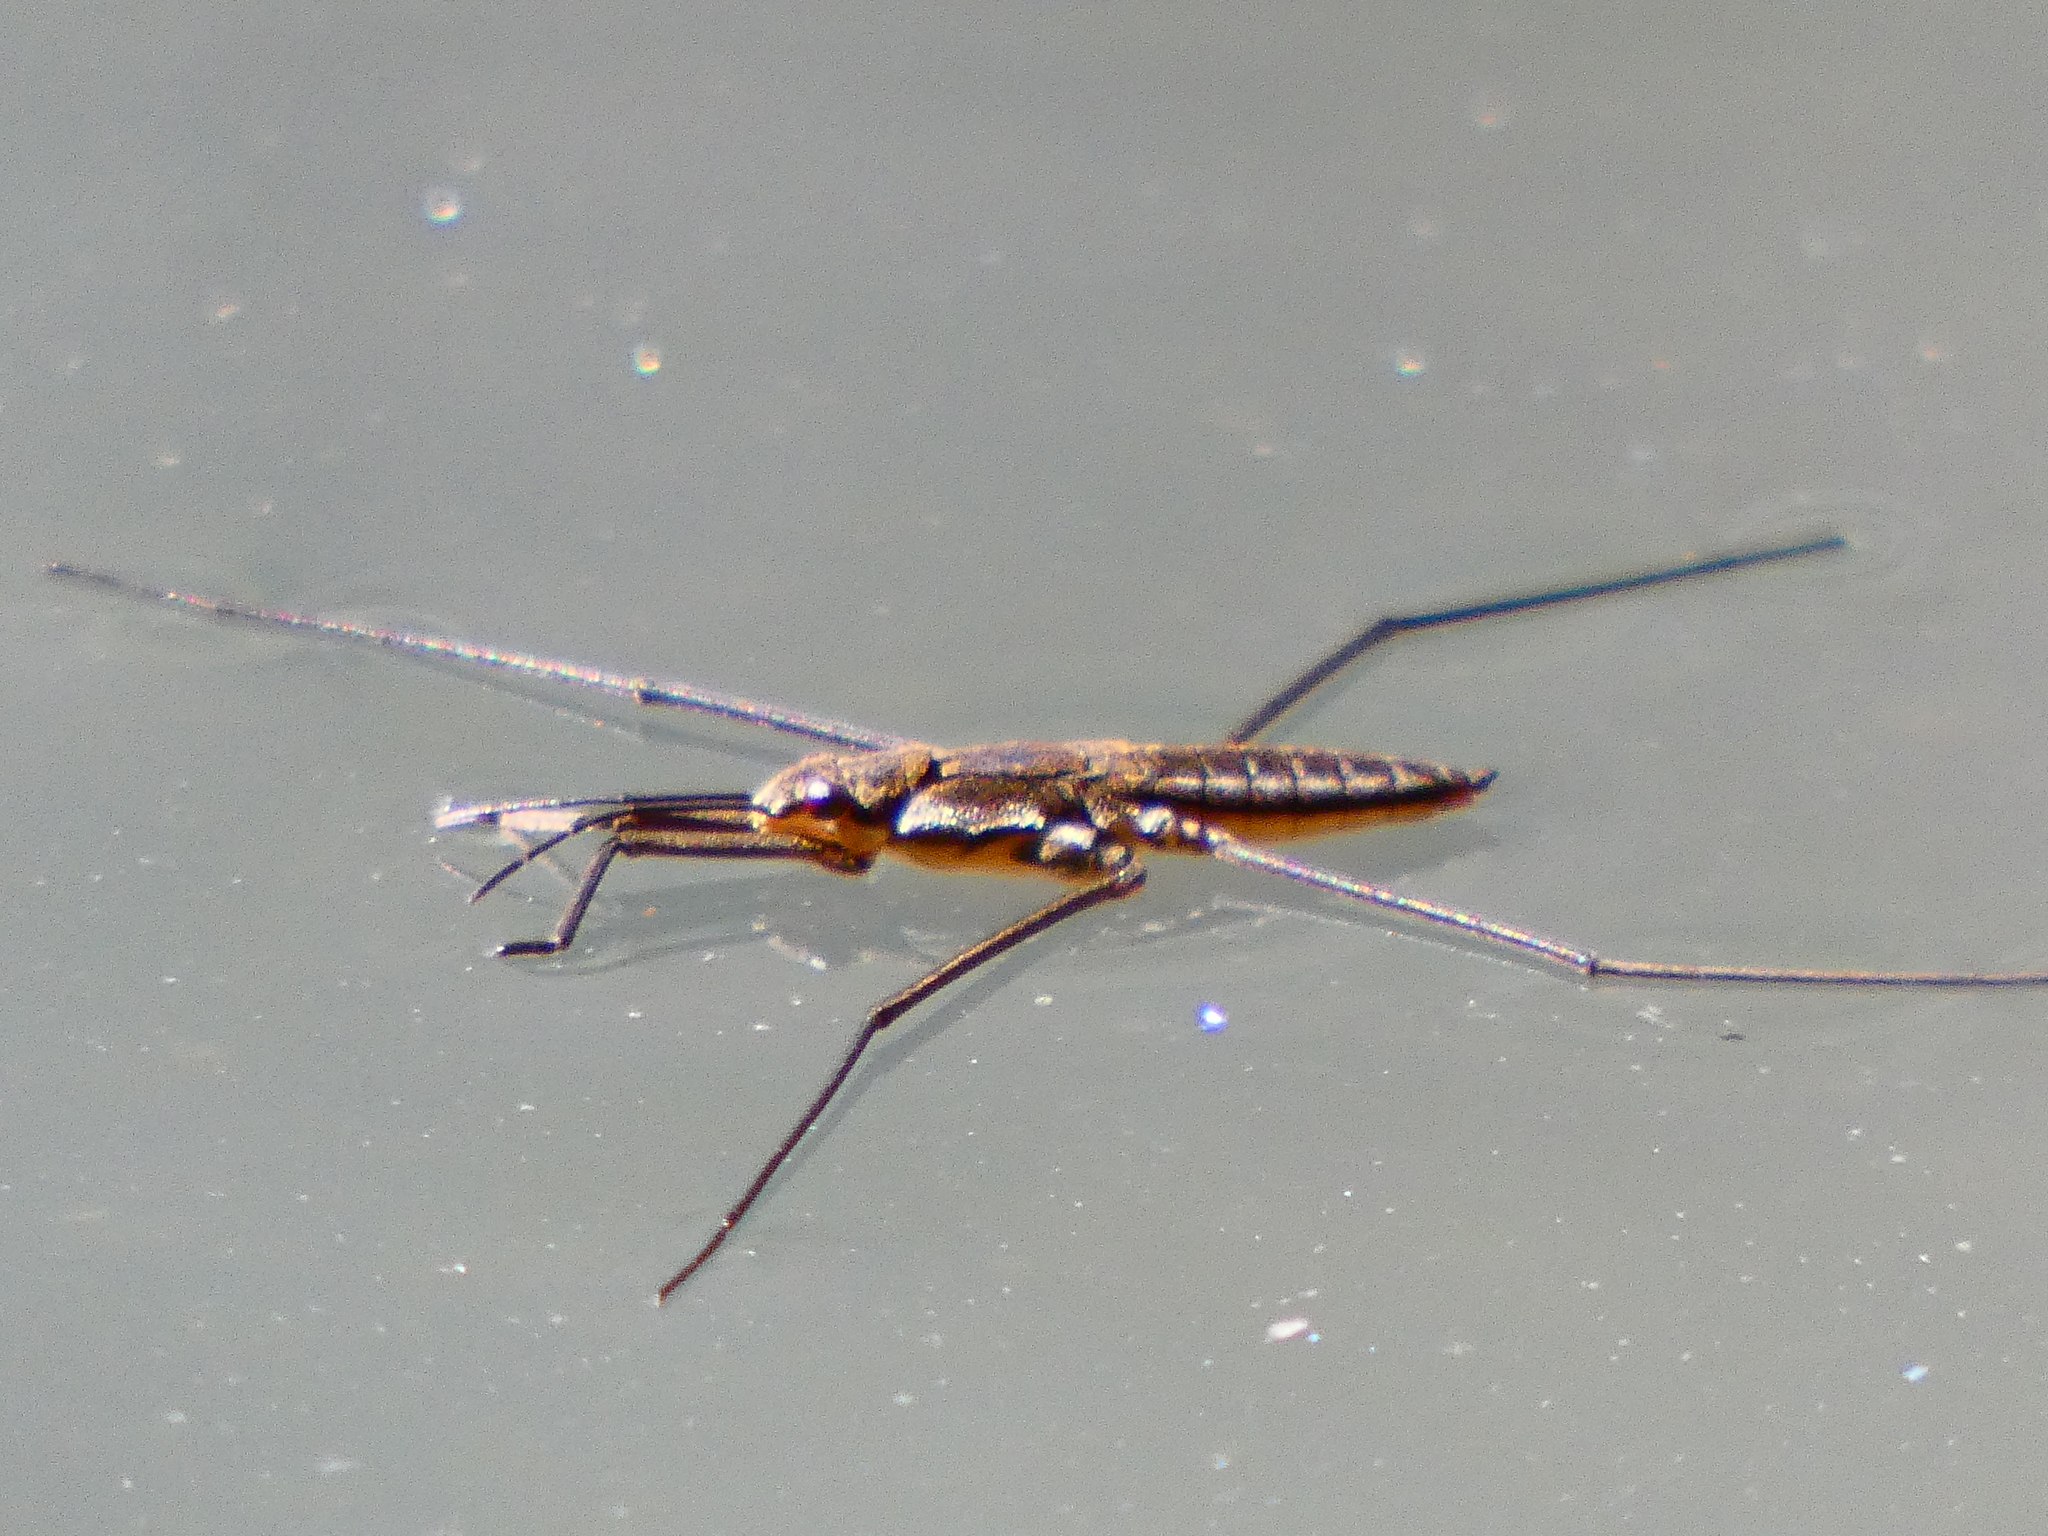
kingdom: Animalia
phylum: Arthropoda
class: Insecta
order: Hemiptera
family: Gerridae
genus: Aquarius
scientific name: Aquarius chilensis
